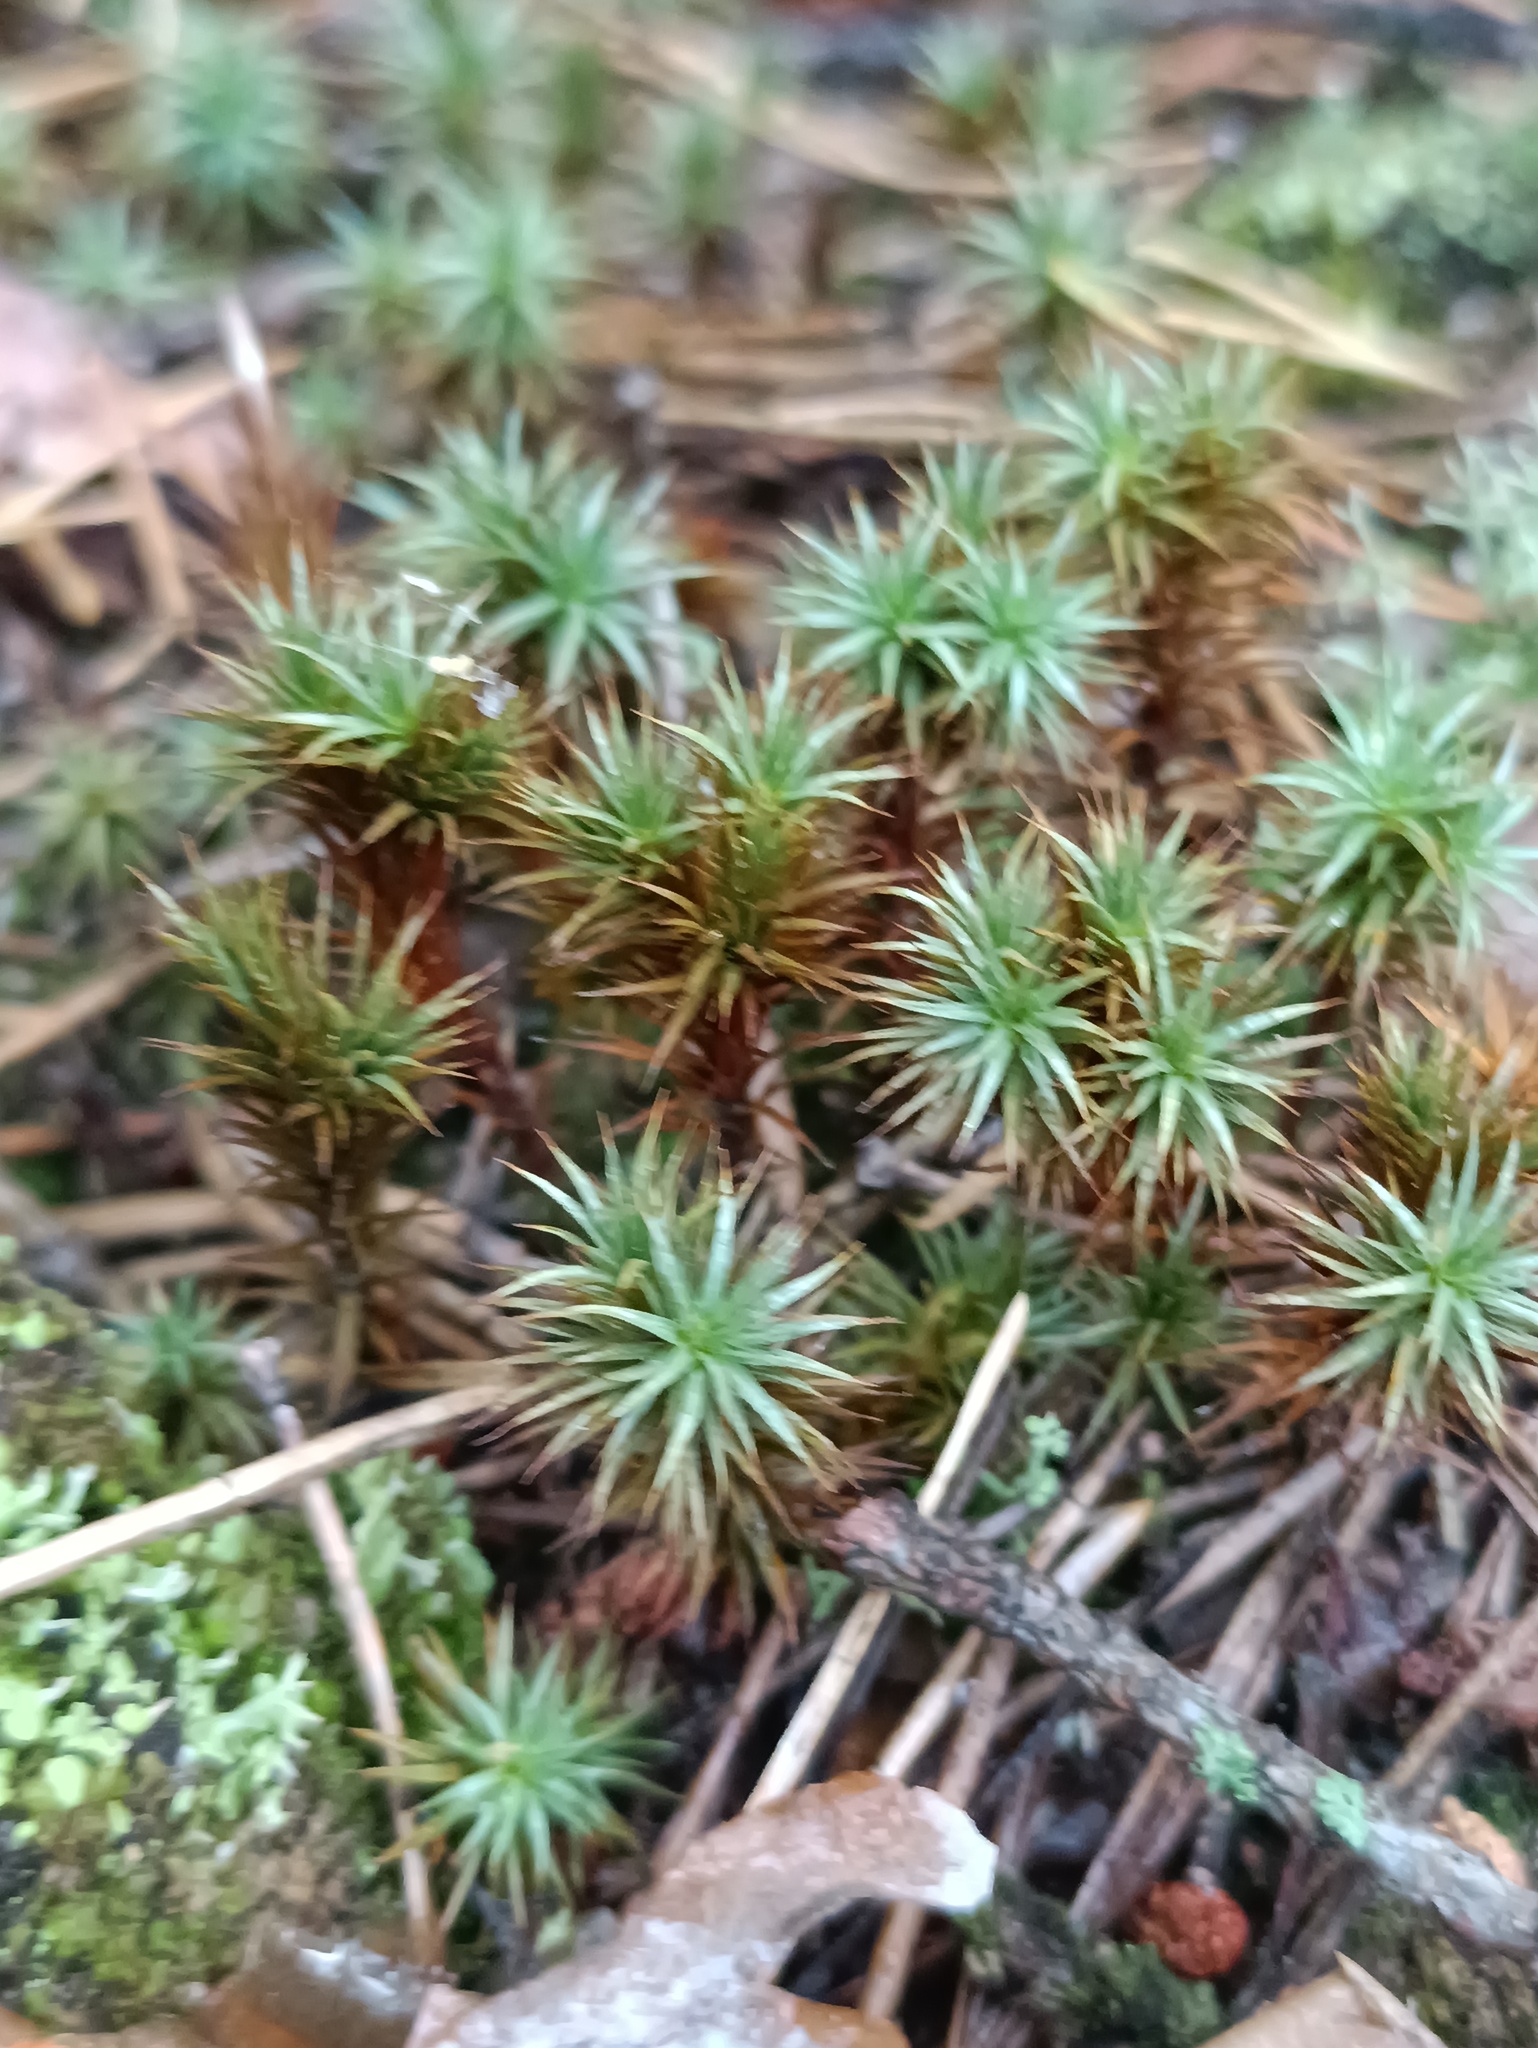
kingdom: Plantae
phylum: Bryophyta
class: Polytrichopsida
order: Polytrichales
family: Polytrichaceae
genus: Polytrichum
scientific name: Polytrichum juniperinum
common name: Juniper haircap moss
